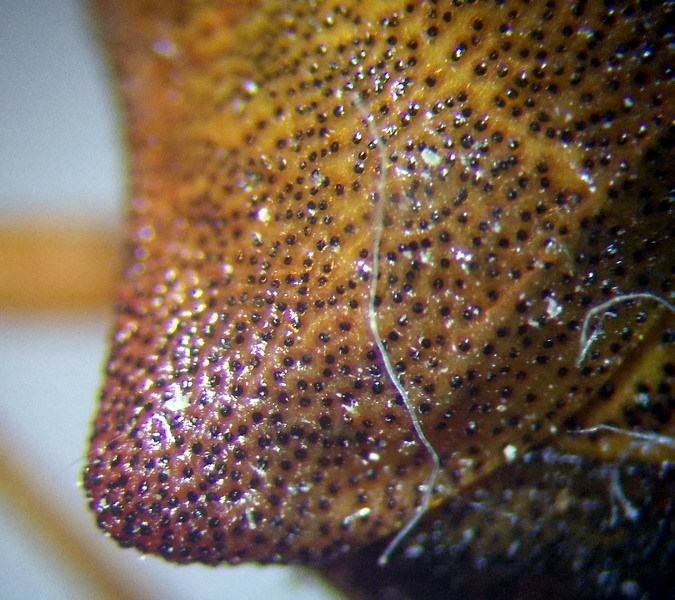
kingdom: Animalia
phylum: Arthropoda
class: Insecta
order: Hemiptera
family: Coreidae
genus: Gonocerus
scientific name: Gonocerus acuteangulatus
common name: Box bug
